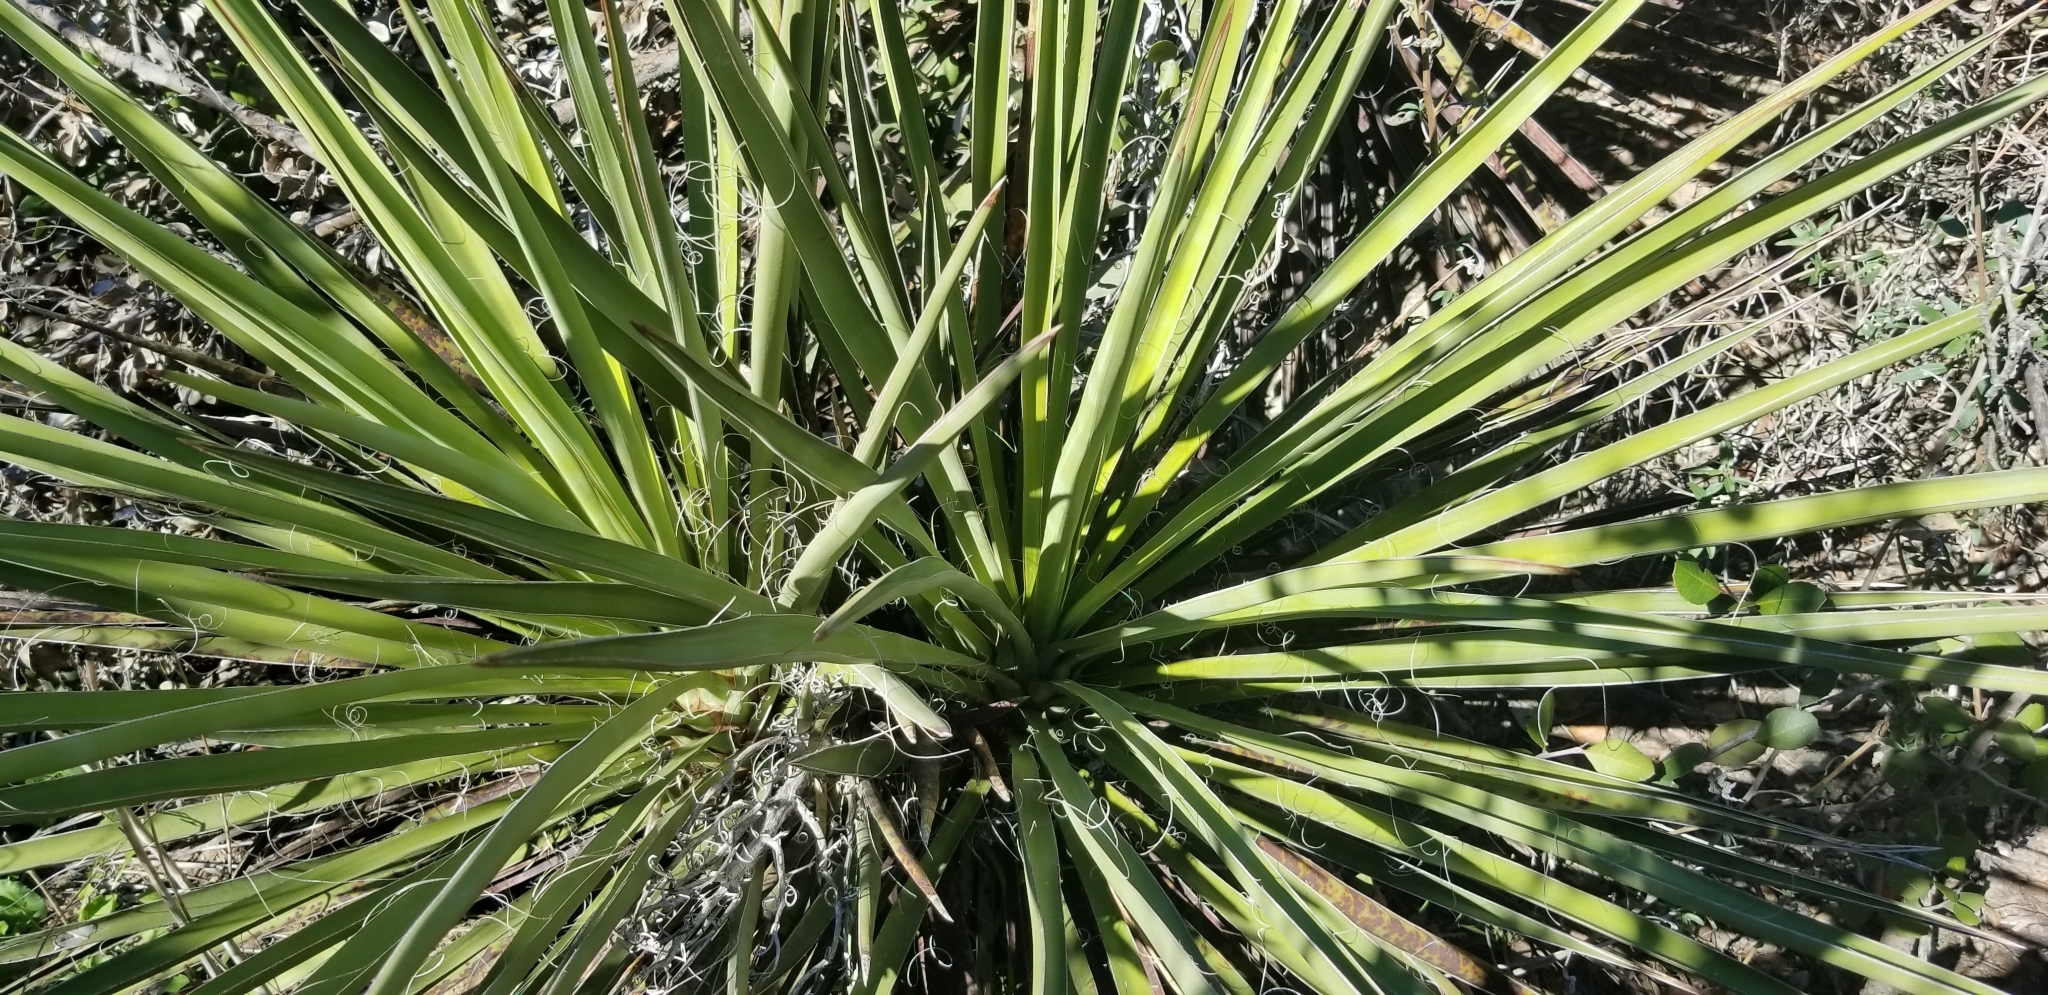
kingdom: Plantae
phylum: Tracheophyta
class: Liliopsida
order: Asparagales
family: Asparagaceae
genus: Yucca
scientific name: Yucca schidigera
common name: Mojave yucca
